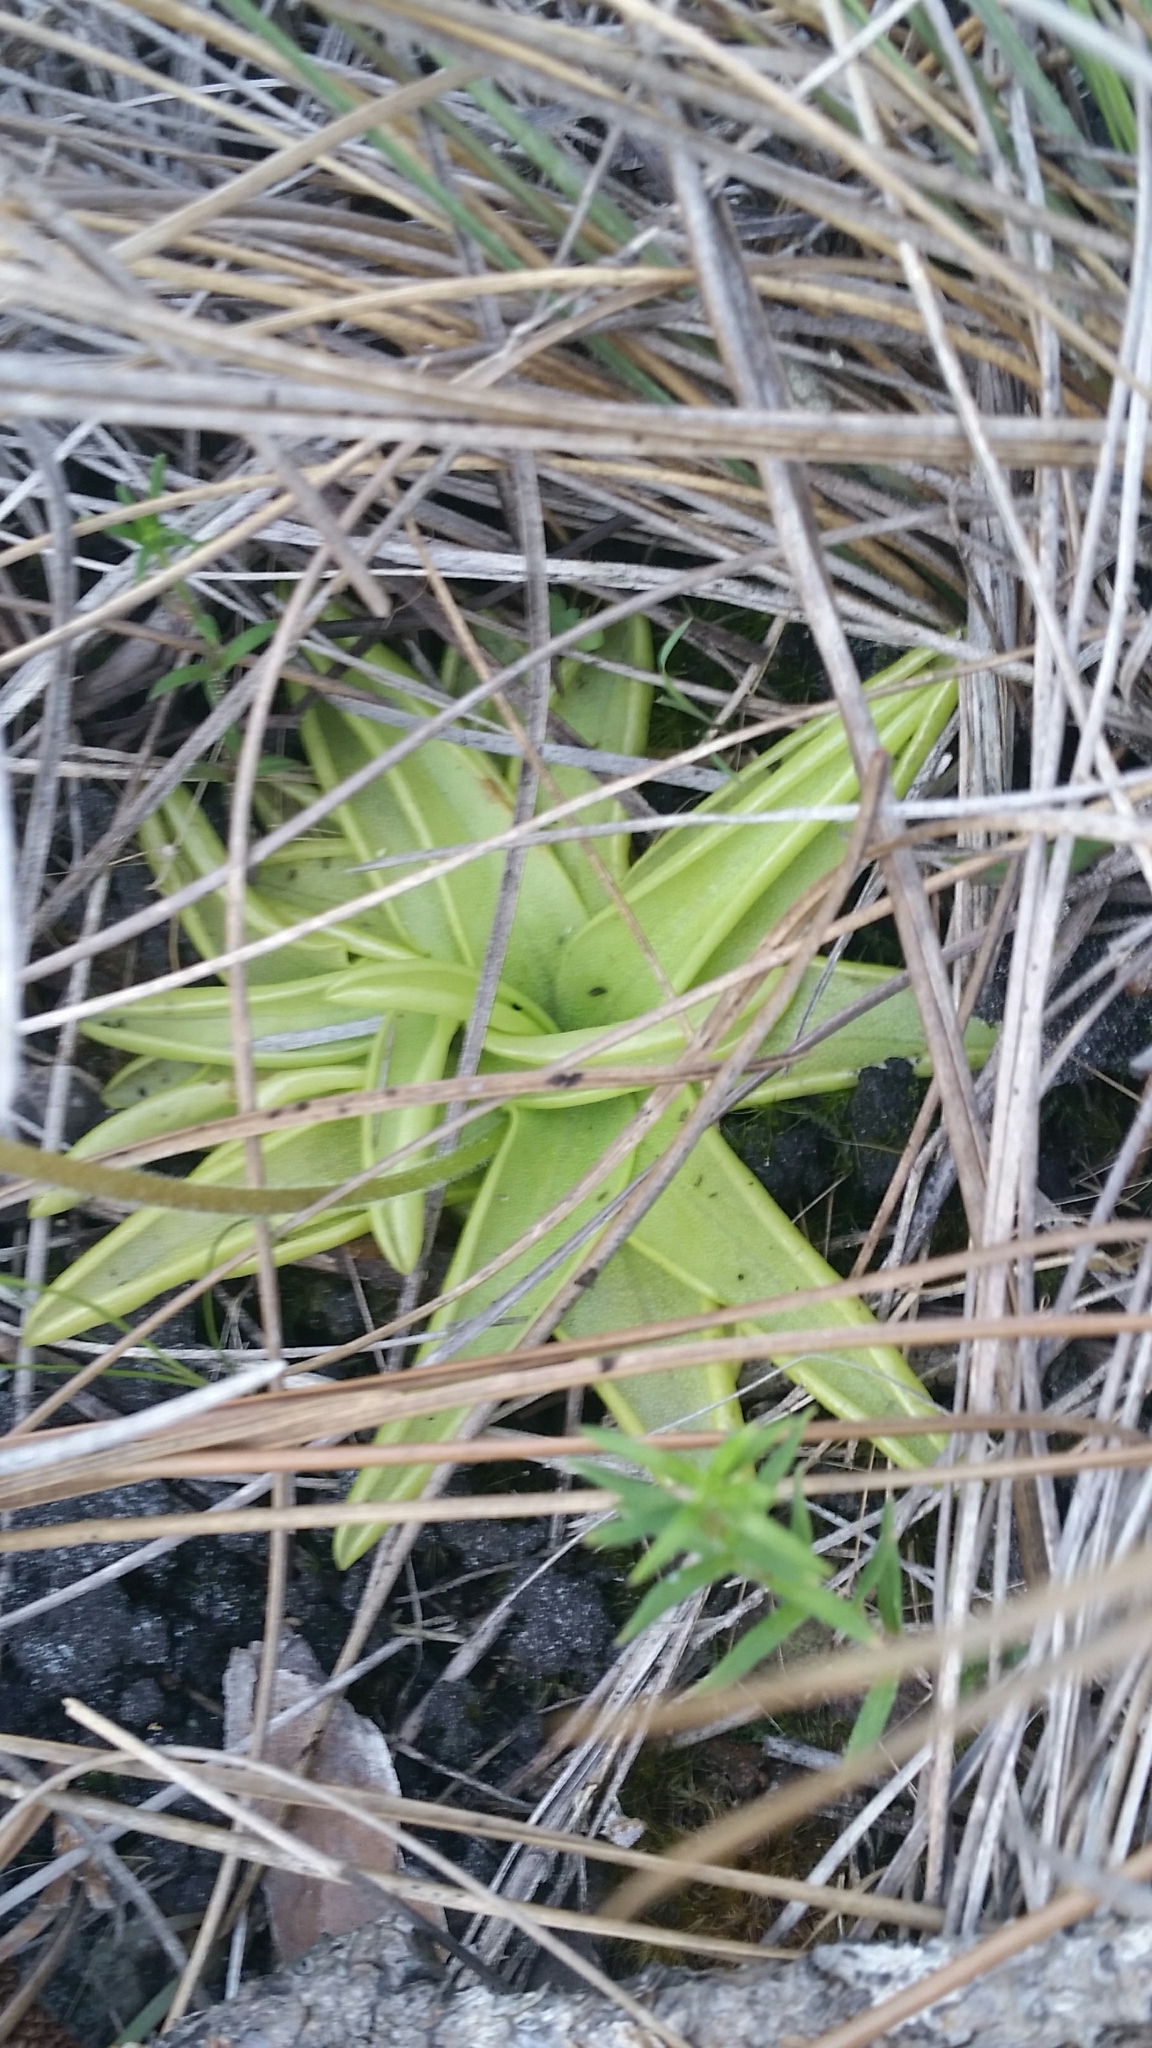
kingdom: Plantae
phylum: Tracheophyta
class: Magnoliopsida
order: Lamiales
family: Lentibulariaceae
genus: Pinguicula
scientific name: Pinguicula lutea
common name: Yellow butterwort
